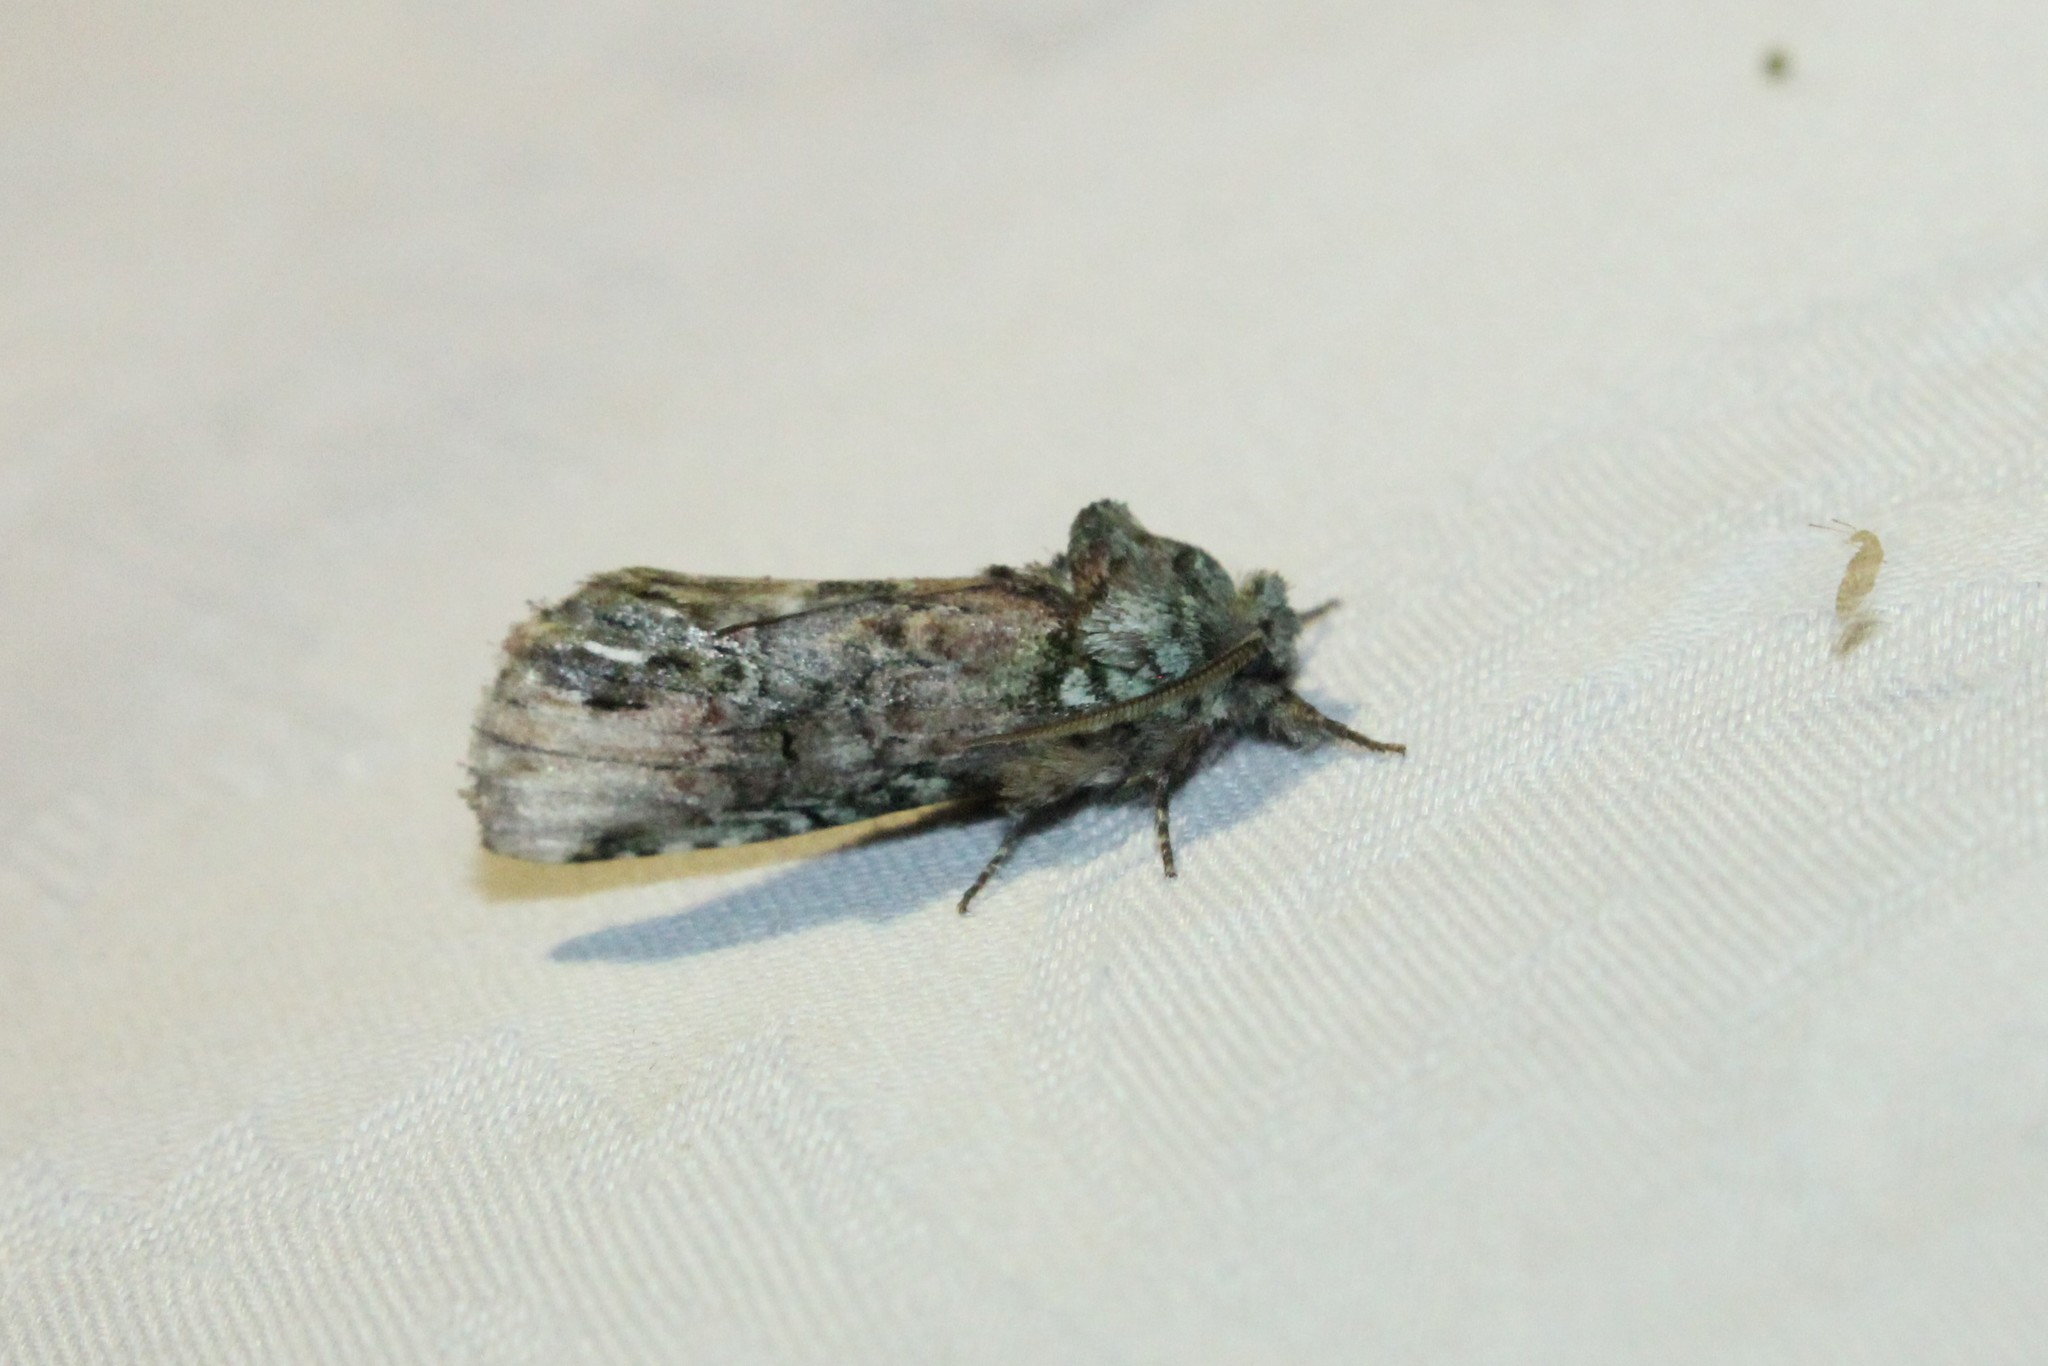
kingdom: Animalia
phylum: Arthropoda
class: Insecta
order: Lepidoptera
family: Notodontidae
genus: Schizura
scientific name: Schizura
